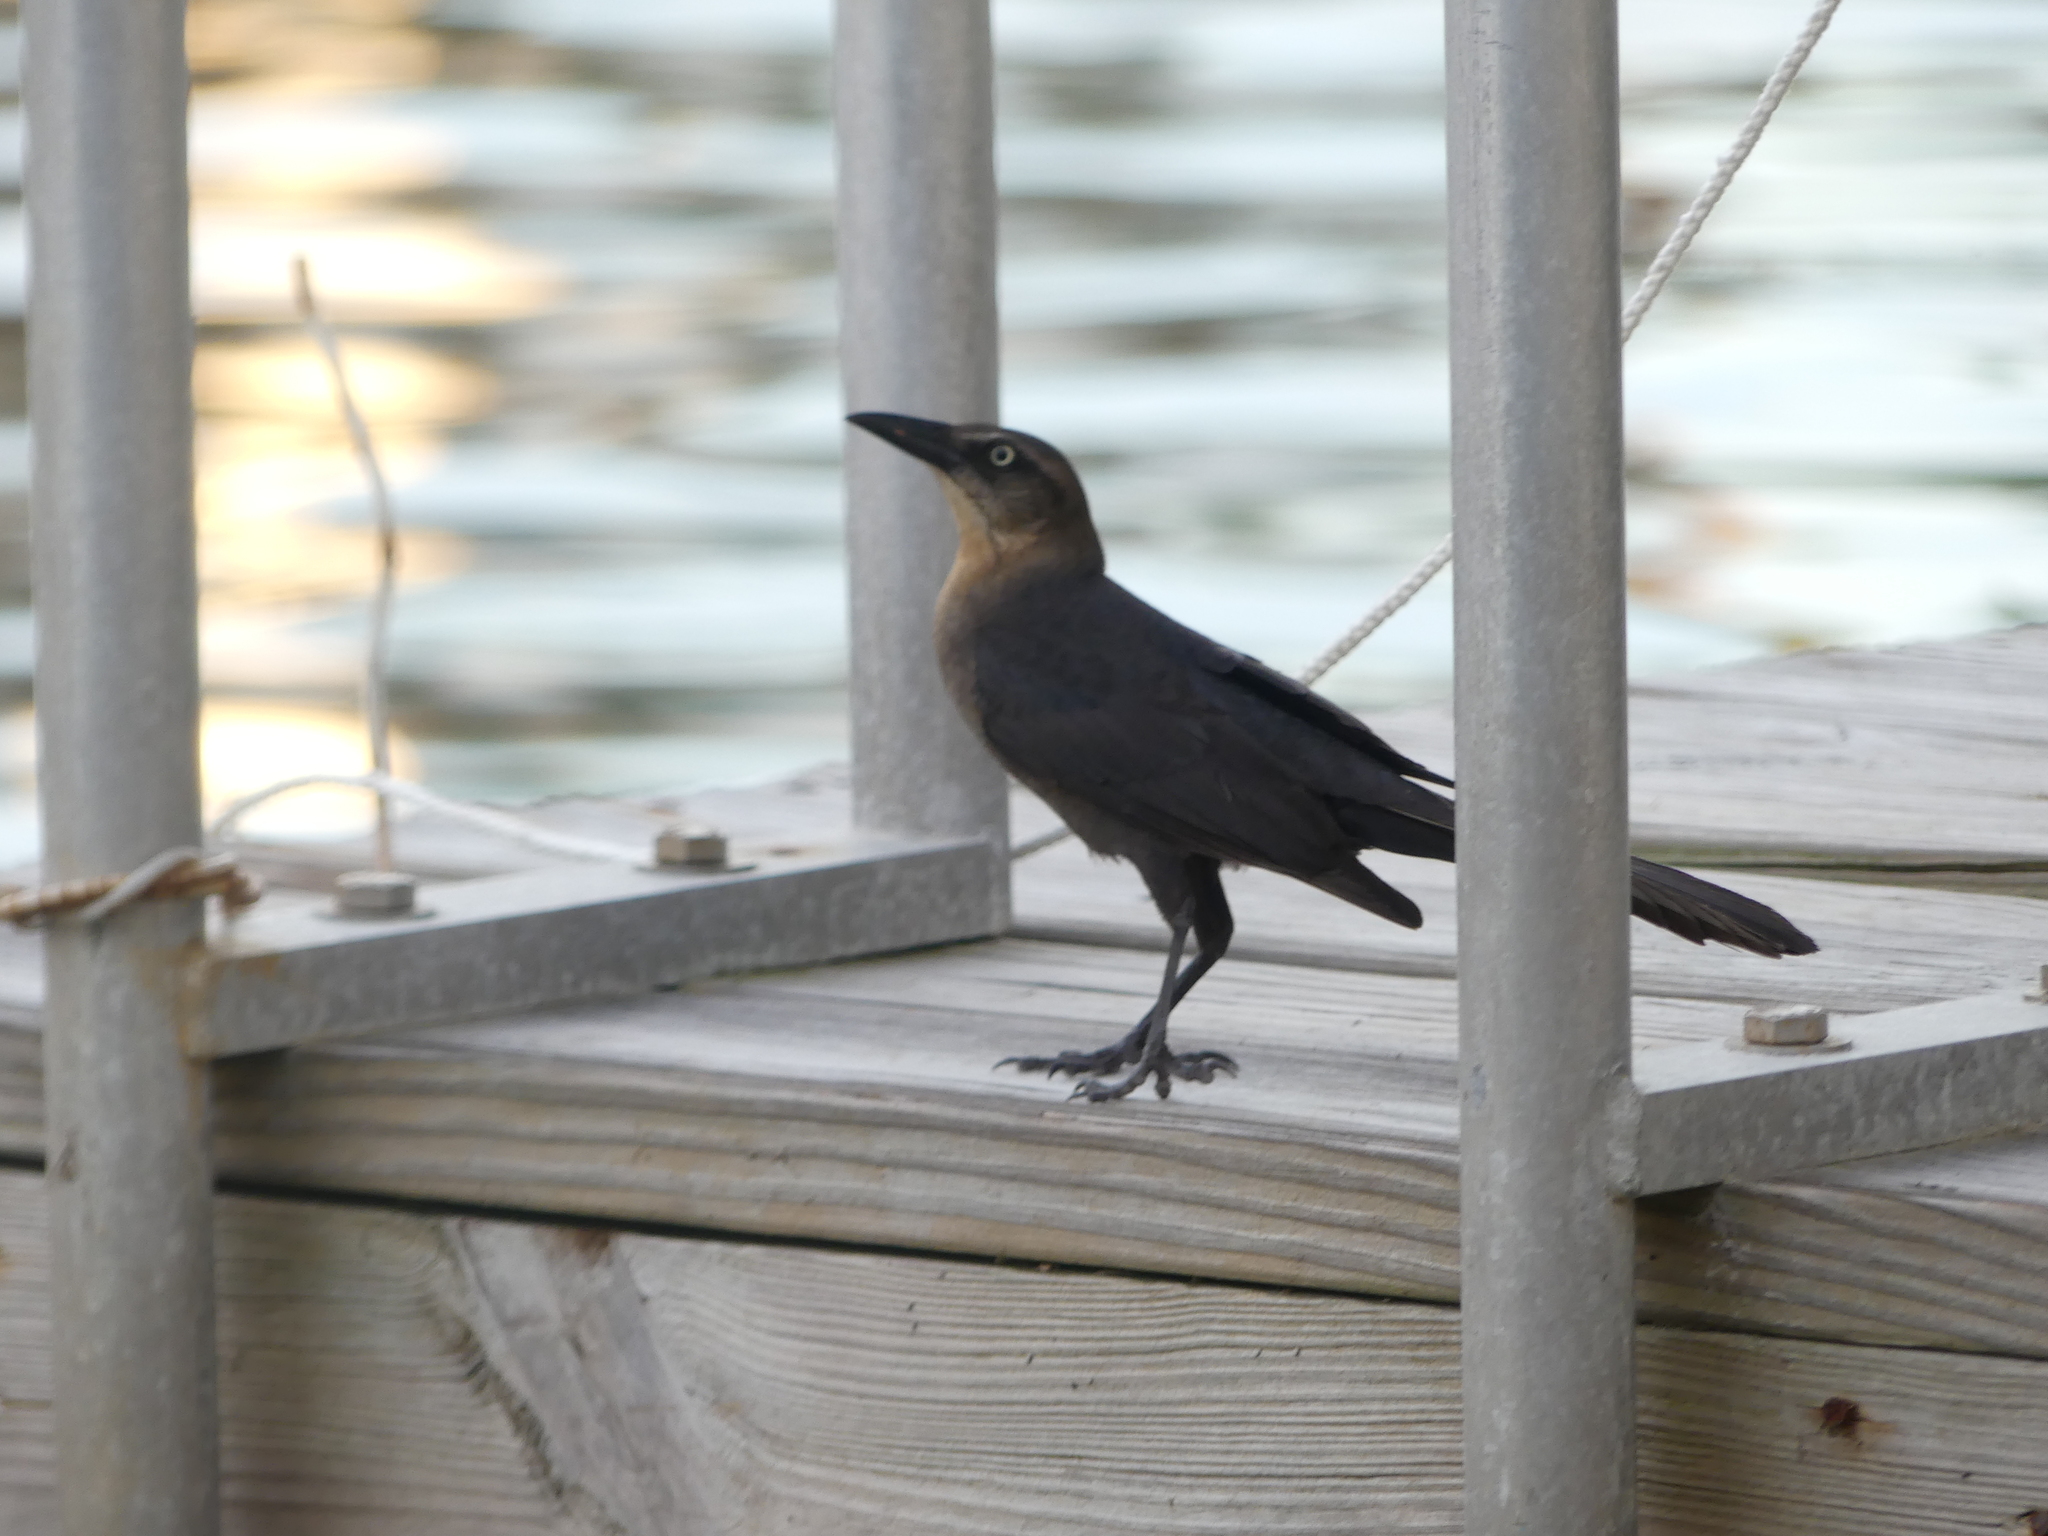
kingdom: Animalia
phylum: Chordata
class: Aves
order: Passeriformes
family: Icteridae
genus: Quiscalus
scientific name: Quiscalus mexicanus
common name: Great-tailed grackle
